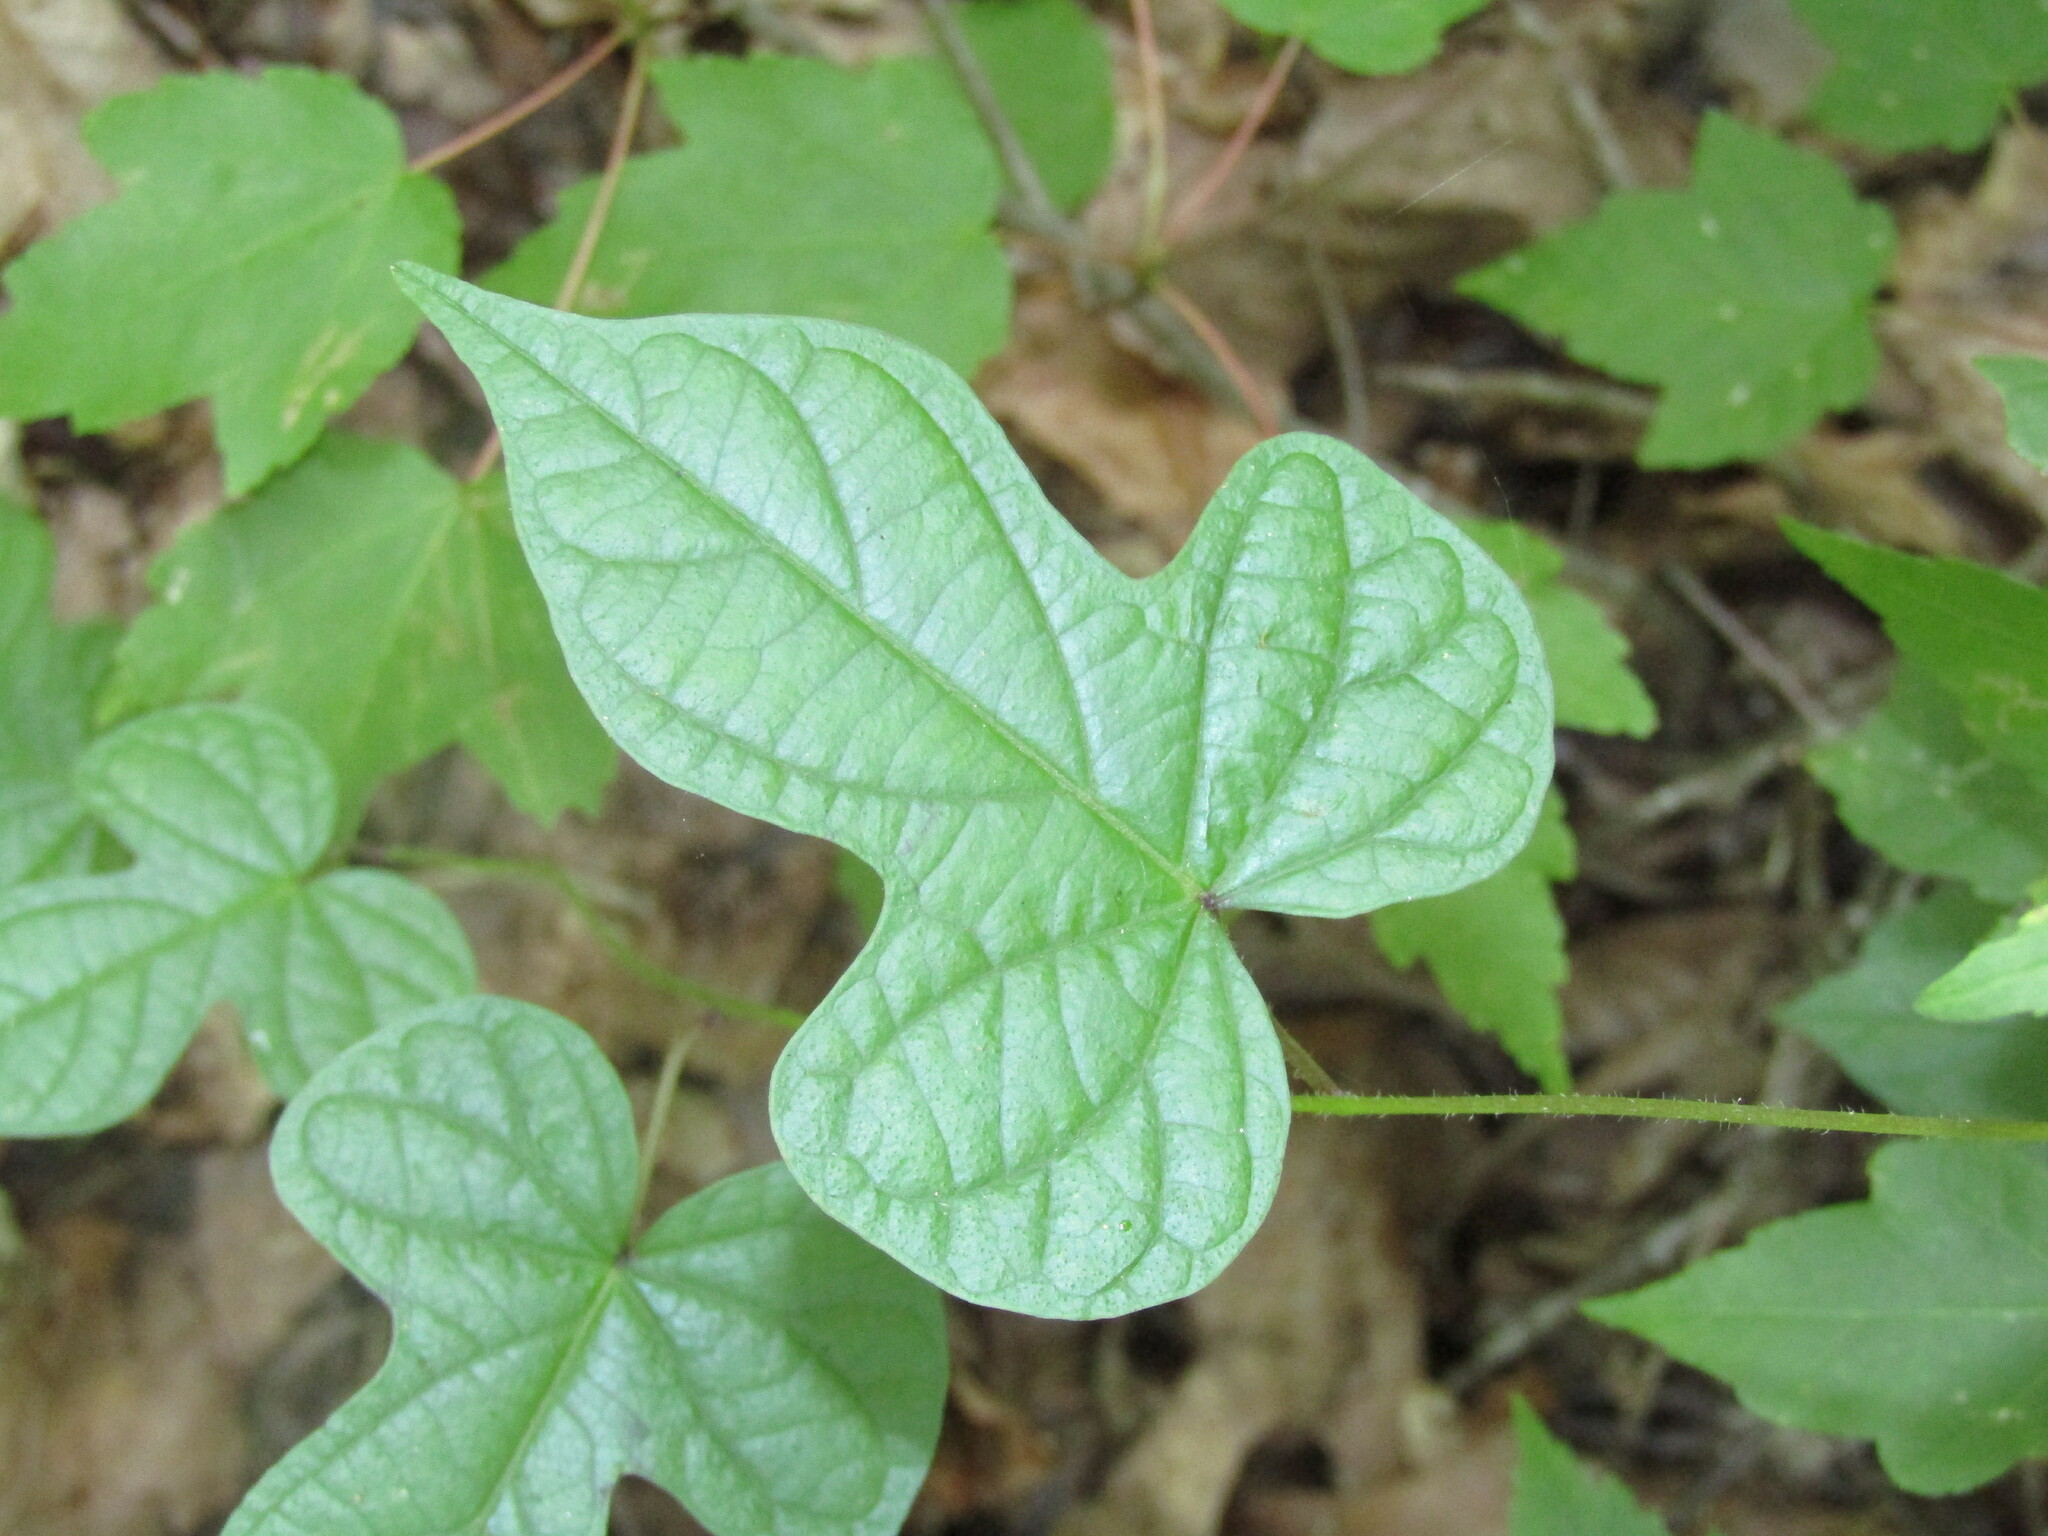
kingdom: Plantae
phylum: Tracheophyta
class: Magnoliopsida
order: Solanales
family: Convolvulaceae
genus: Ipomoea
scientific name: Ipomoea pandurata
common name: Man-of-the-earth
